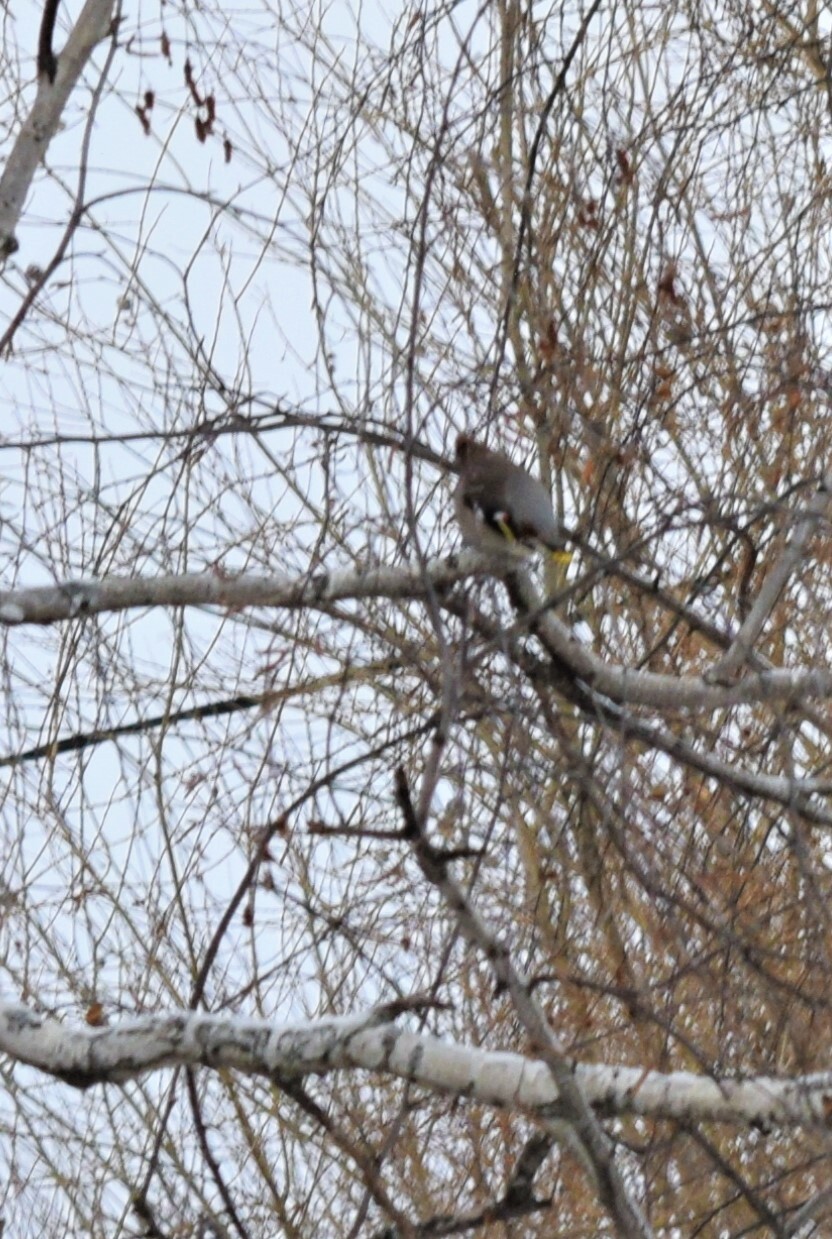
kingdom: Animalia
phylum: Chordata
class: Aves
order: Passeriformes
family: Bombycillidae
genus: Bombycilla
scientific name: Bombycilla garrulus
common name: Bohemian waxwing
